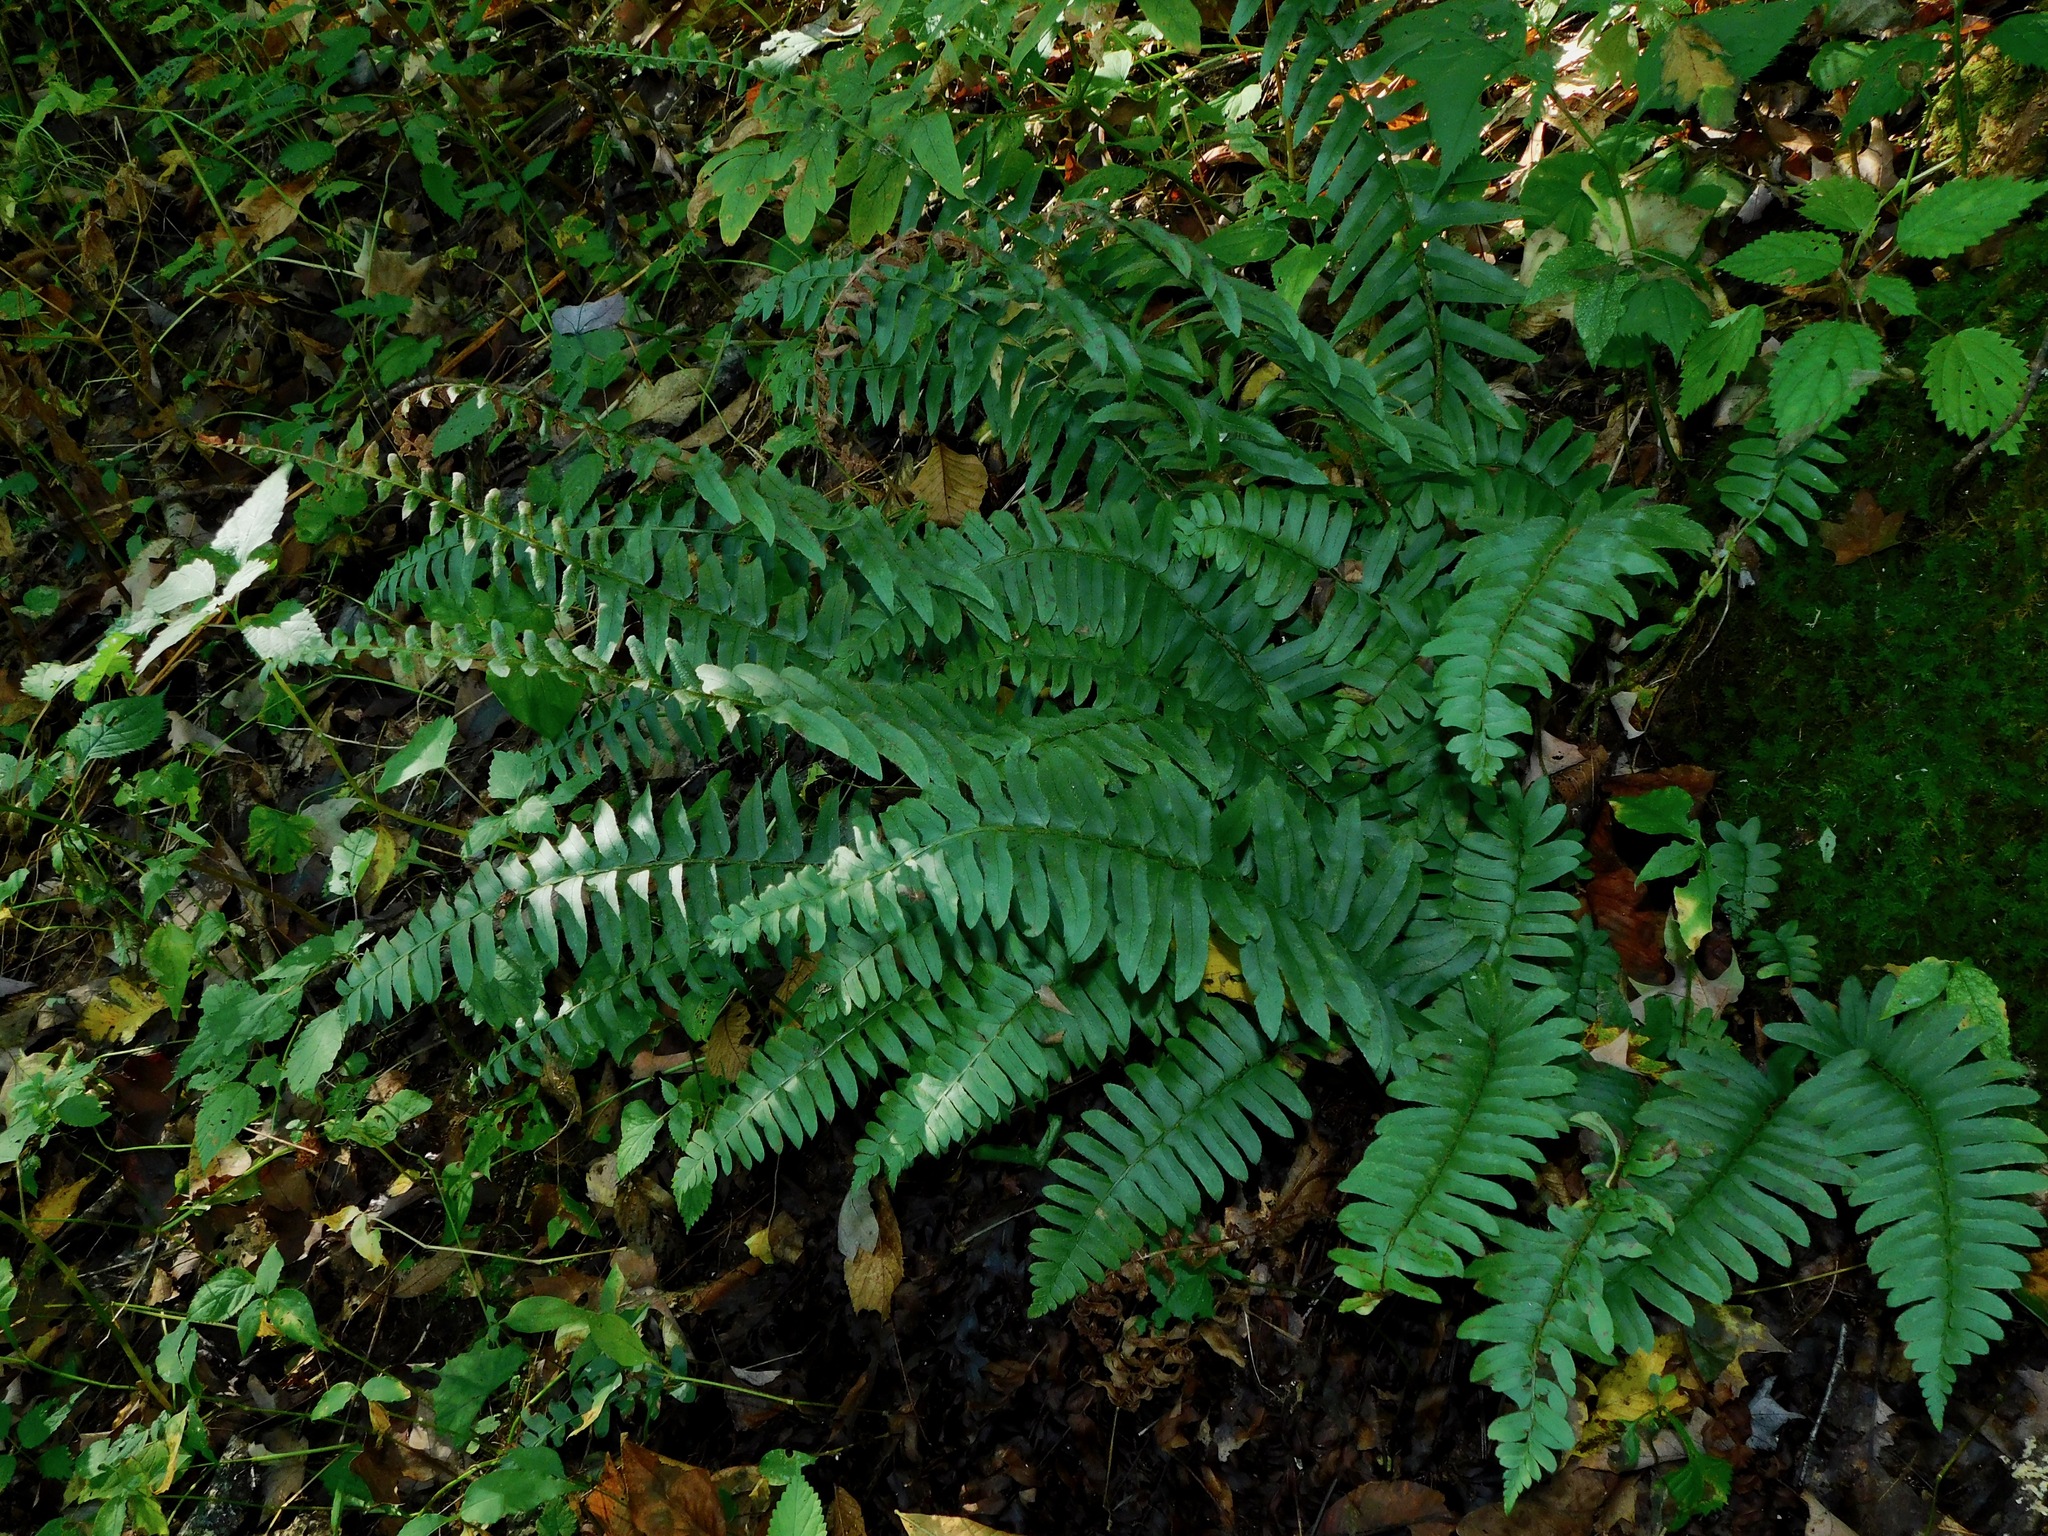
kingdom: Plantae
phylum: Tracheophyta
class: Polypodiopsida
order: Polypodiales
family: Dryopteridaceae
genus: Polystichum
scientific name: Polystichum acrostichoides
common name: Christmas fern
